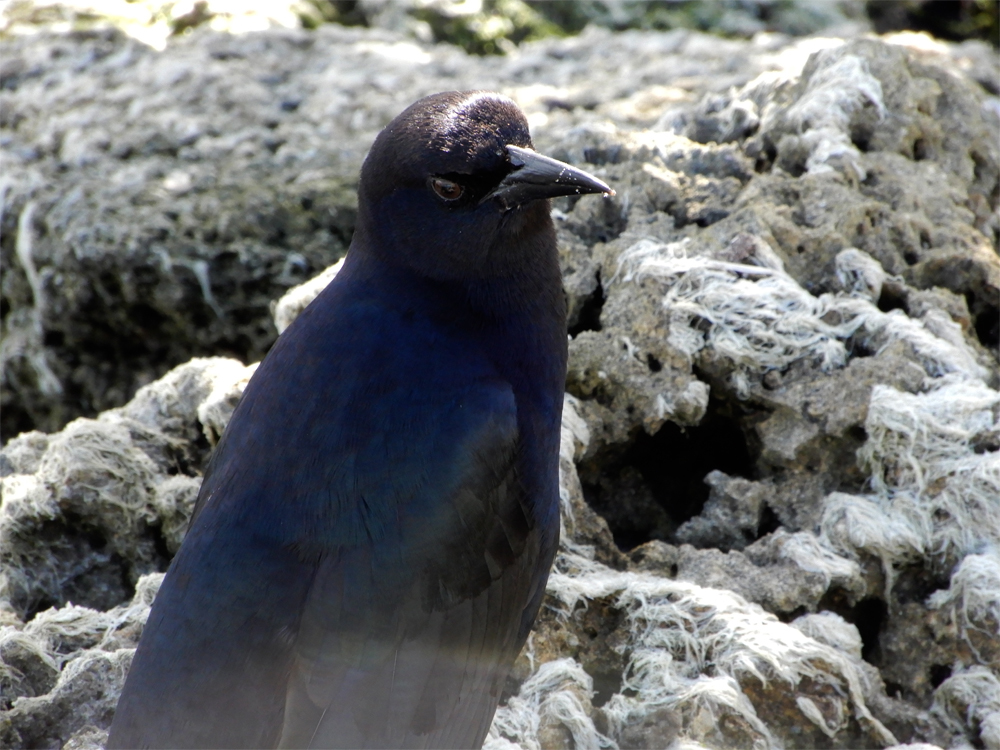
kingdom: Animalia
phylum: Chordata
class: Aves
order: Passeriformes
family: Icteridae
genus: Quiscalus
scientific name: Quiscalus major
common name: Boat-tailed grackle
